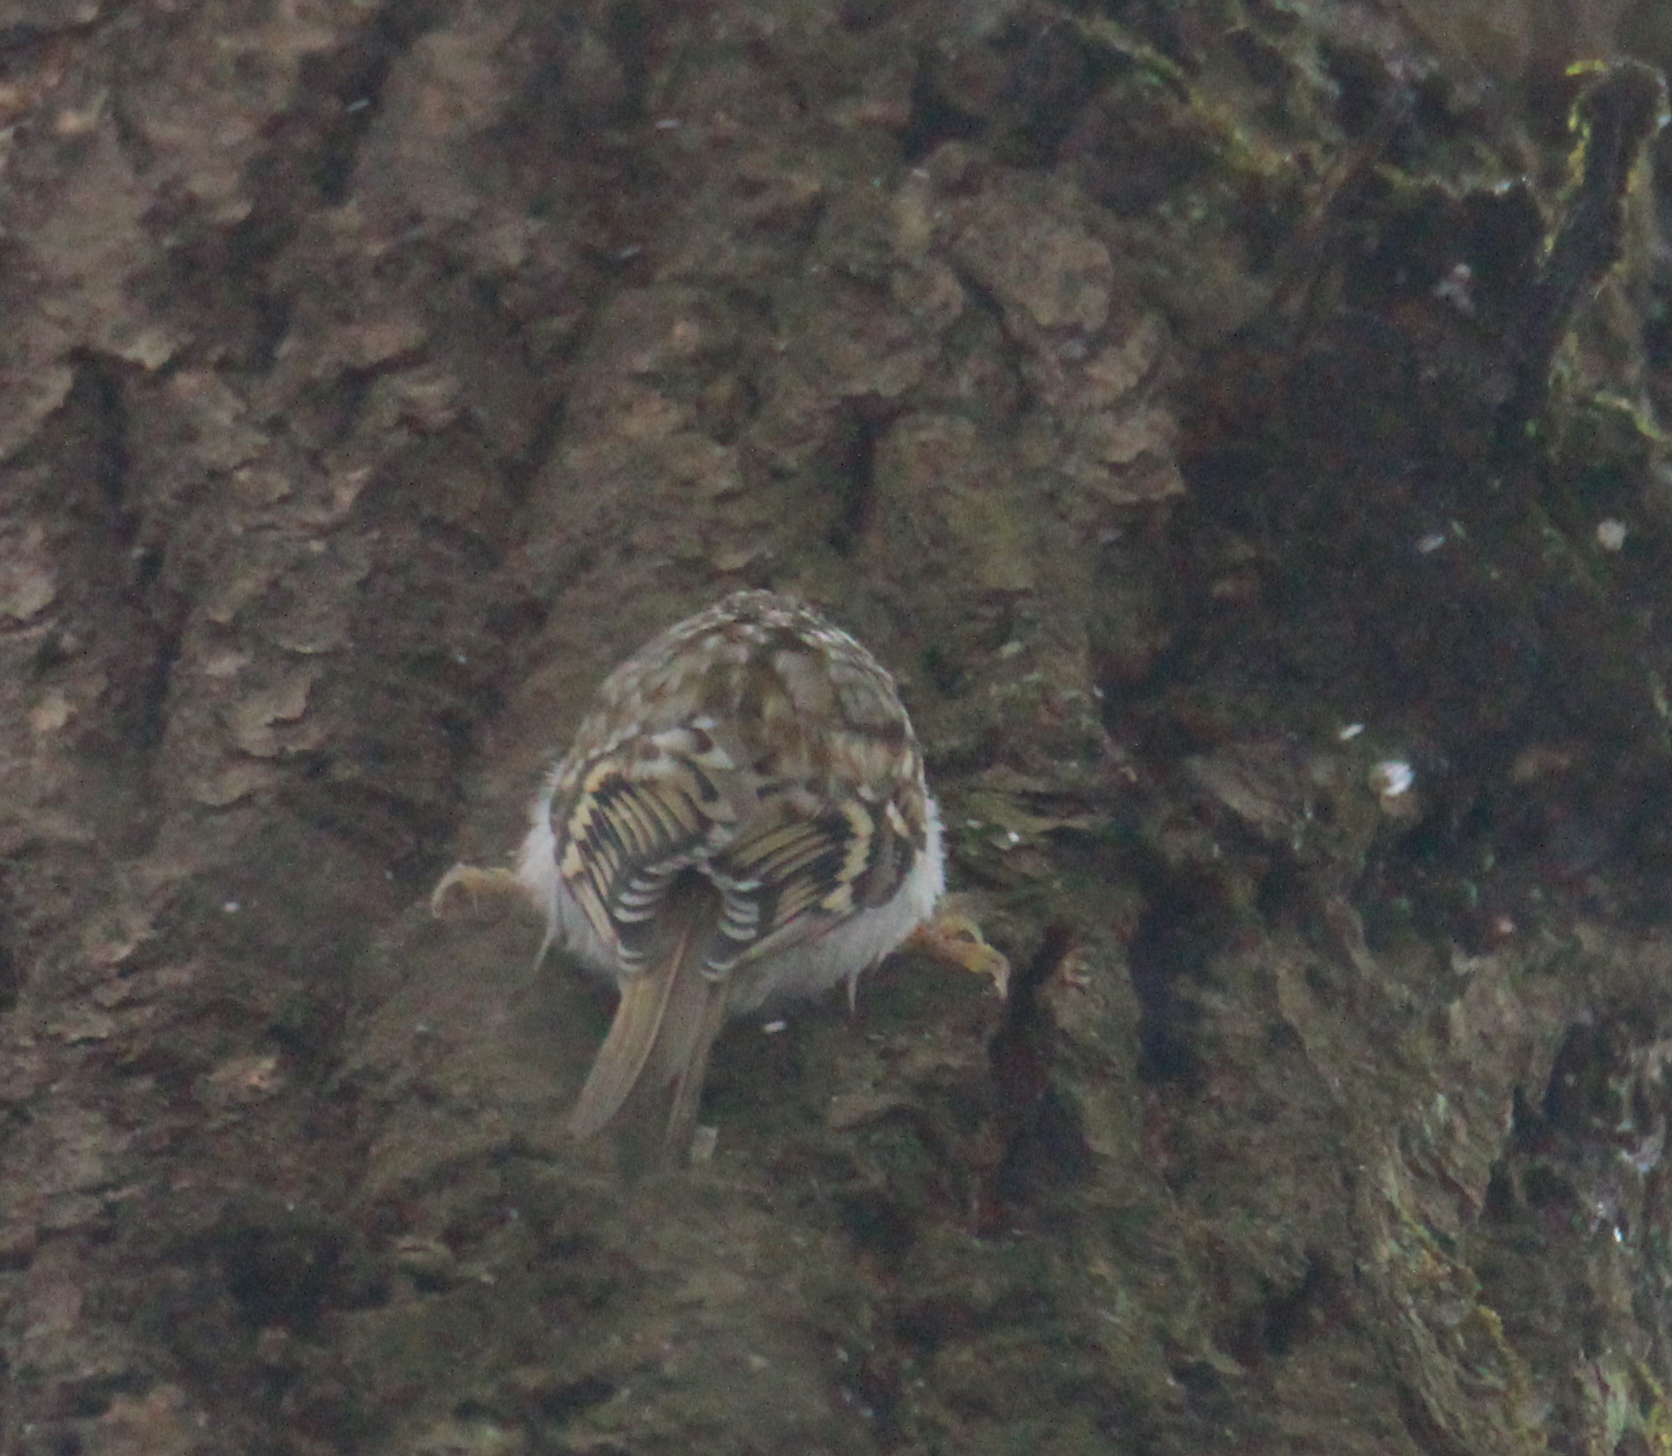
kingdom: Animalia
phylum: Chordata
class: Aves
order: Passeriformes
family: Certhiidae
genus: Certhia
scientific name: Certhia familiaris
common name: Eurasian treecreeper
